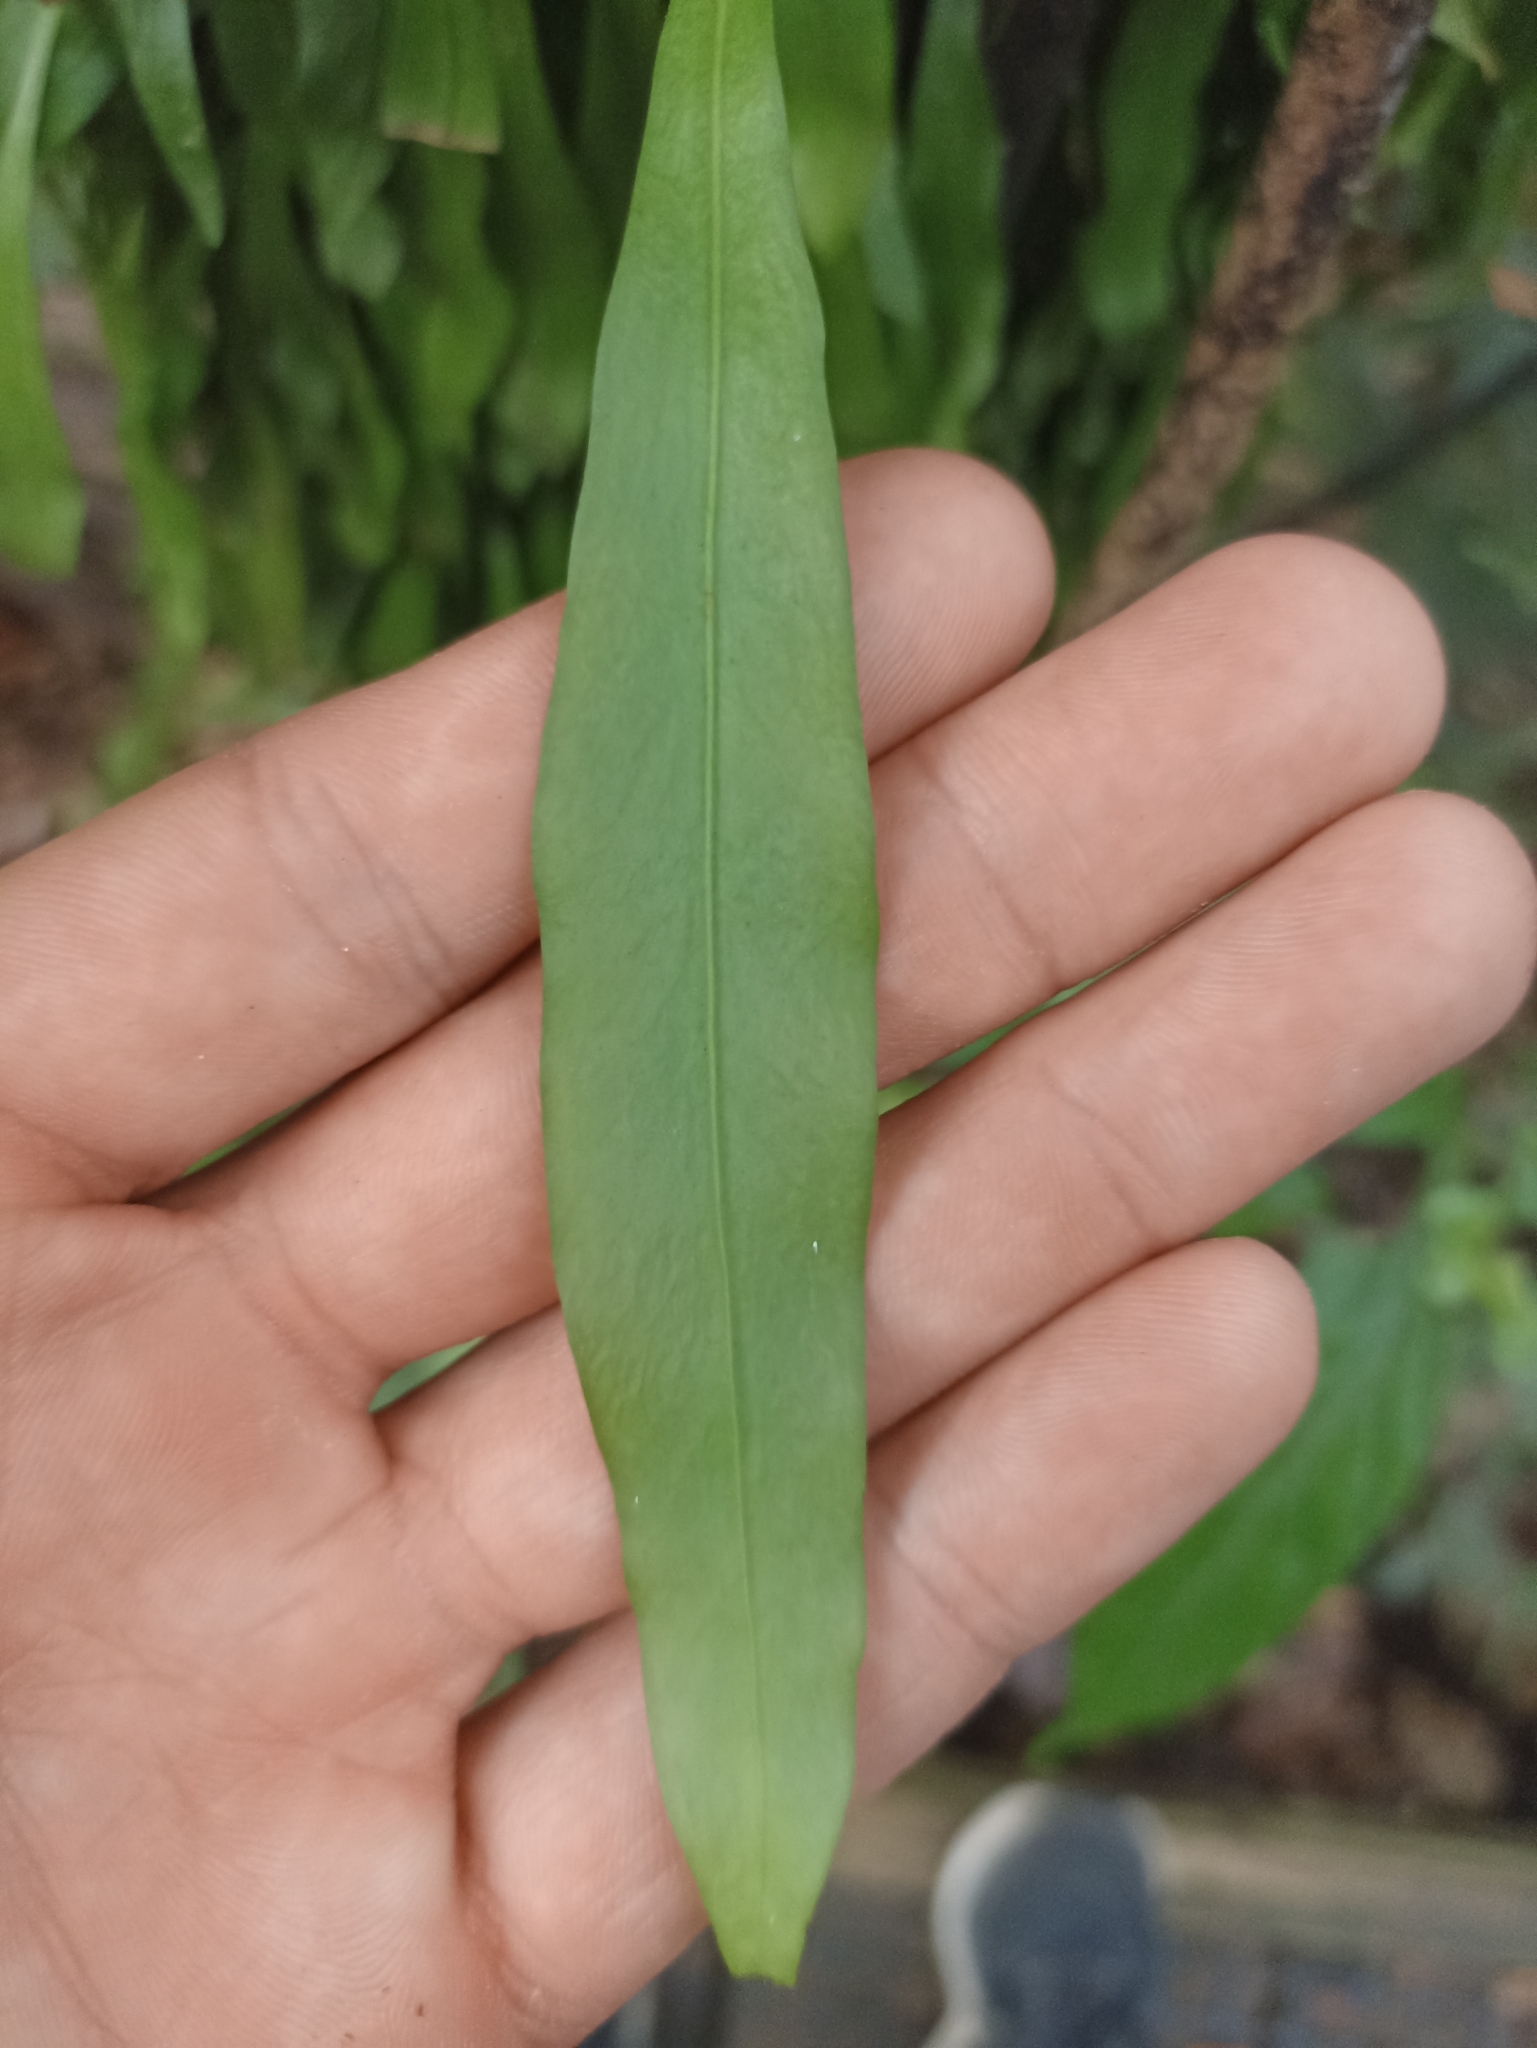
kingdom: Plantae
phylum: Tracheophyta
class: Polypodiopsida
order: Polypodiales
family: Polypodiaceae
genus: Loxogramme
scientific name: Loxogramme dictyopteris
